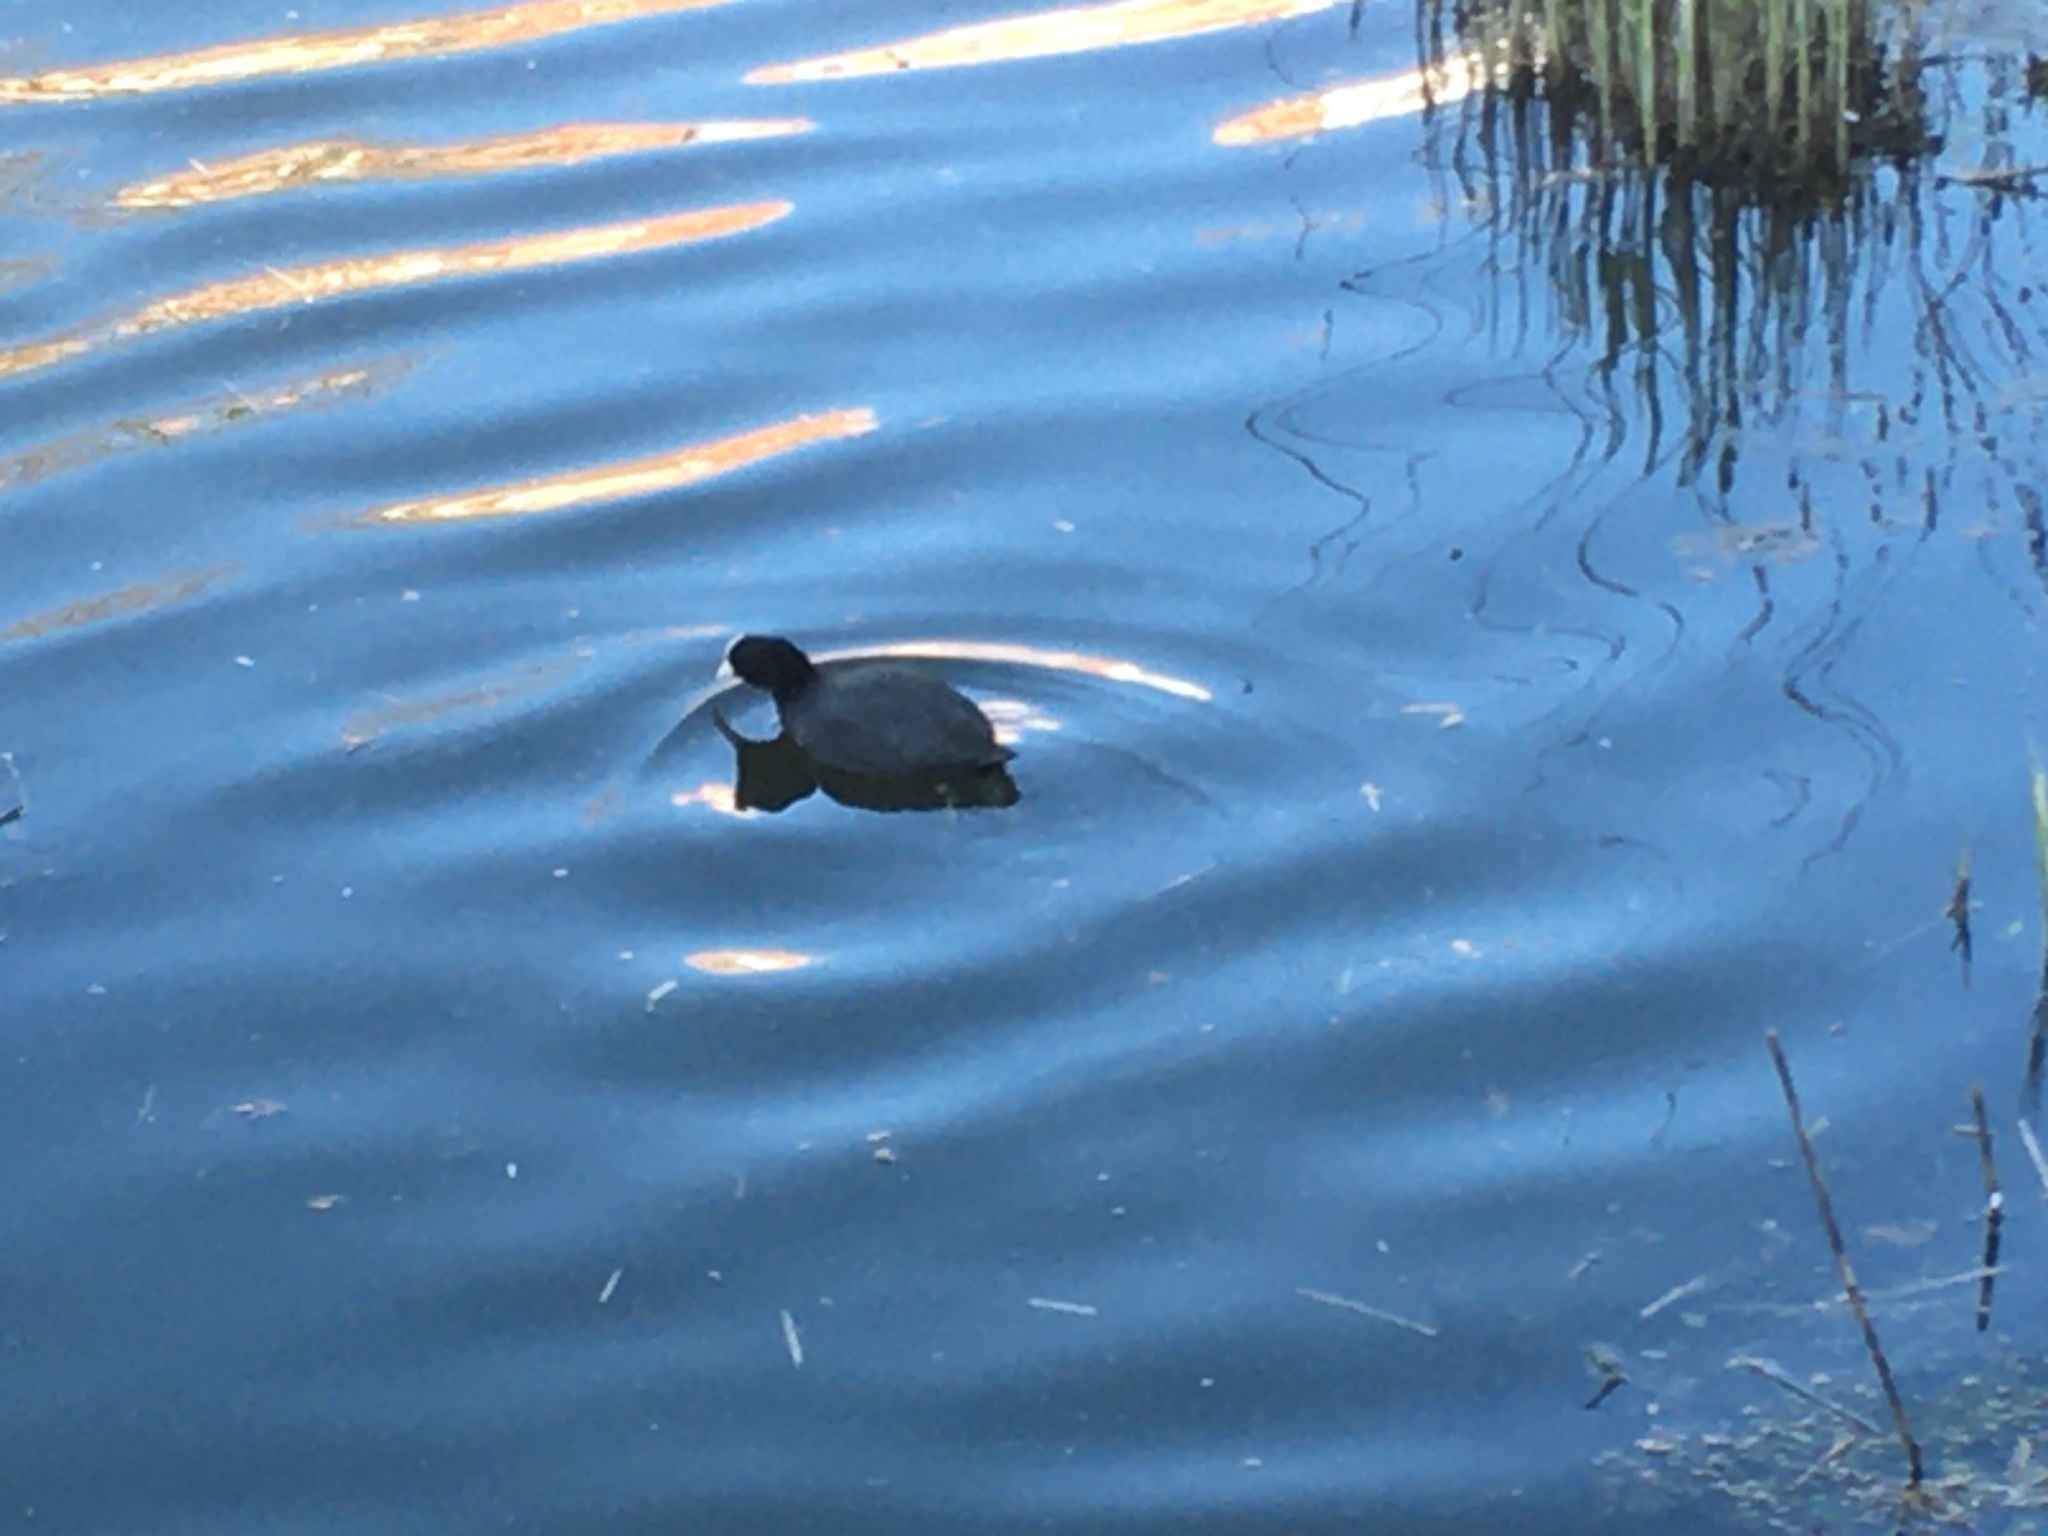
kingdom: Animalia
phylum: Chordata
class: Aves
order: Gruiformes
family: Rallidae
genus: Fulica
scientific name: Fulica atra
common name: Eurasian coot
